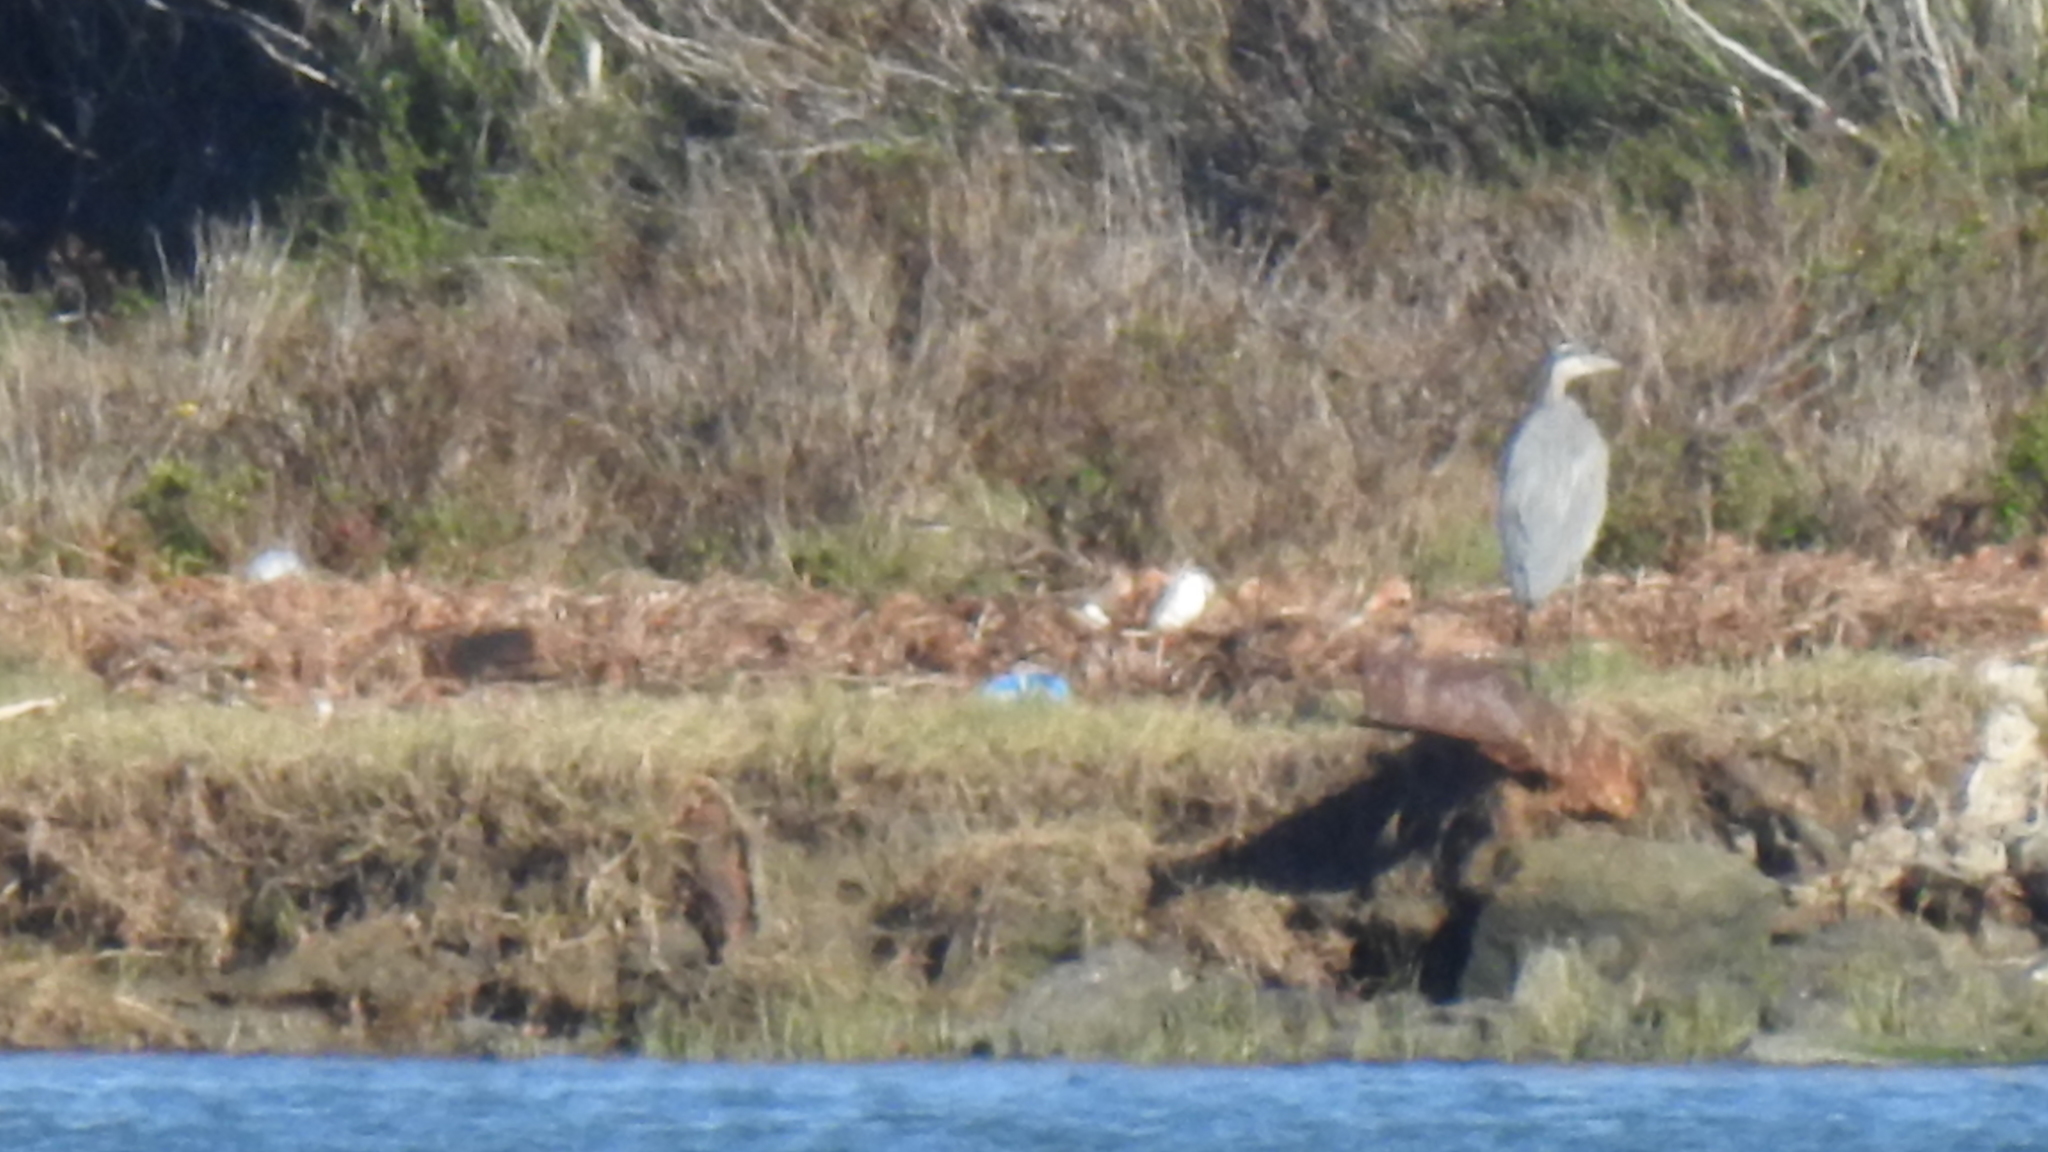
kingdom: Animalia
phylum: Chordata
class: Aves
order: Pelecaniformes
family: Ardeidae
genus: Ardea
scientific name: Ardea herodias
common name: Great blue heron
